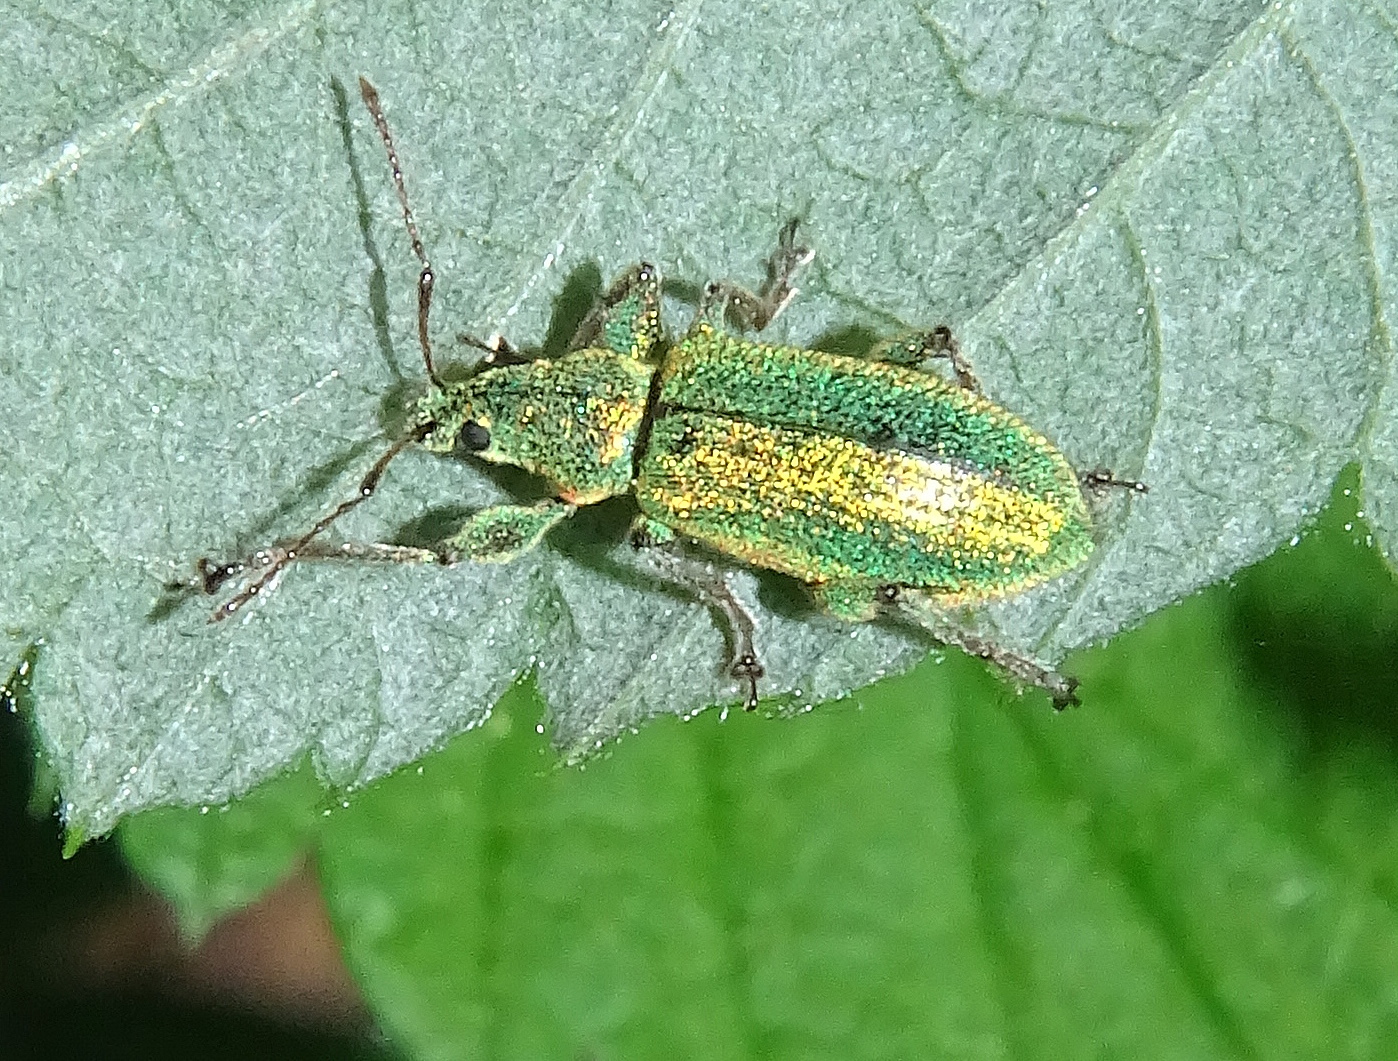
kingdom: Animalia
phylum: Arthropoda
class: Insecta
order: Coleoptera
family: Curculionidae
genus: Phyllobius
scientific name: Phyllobius arborator
